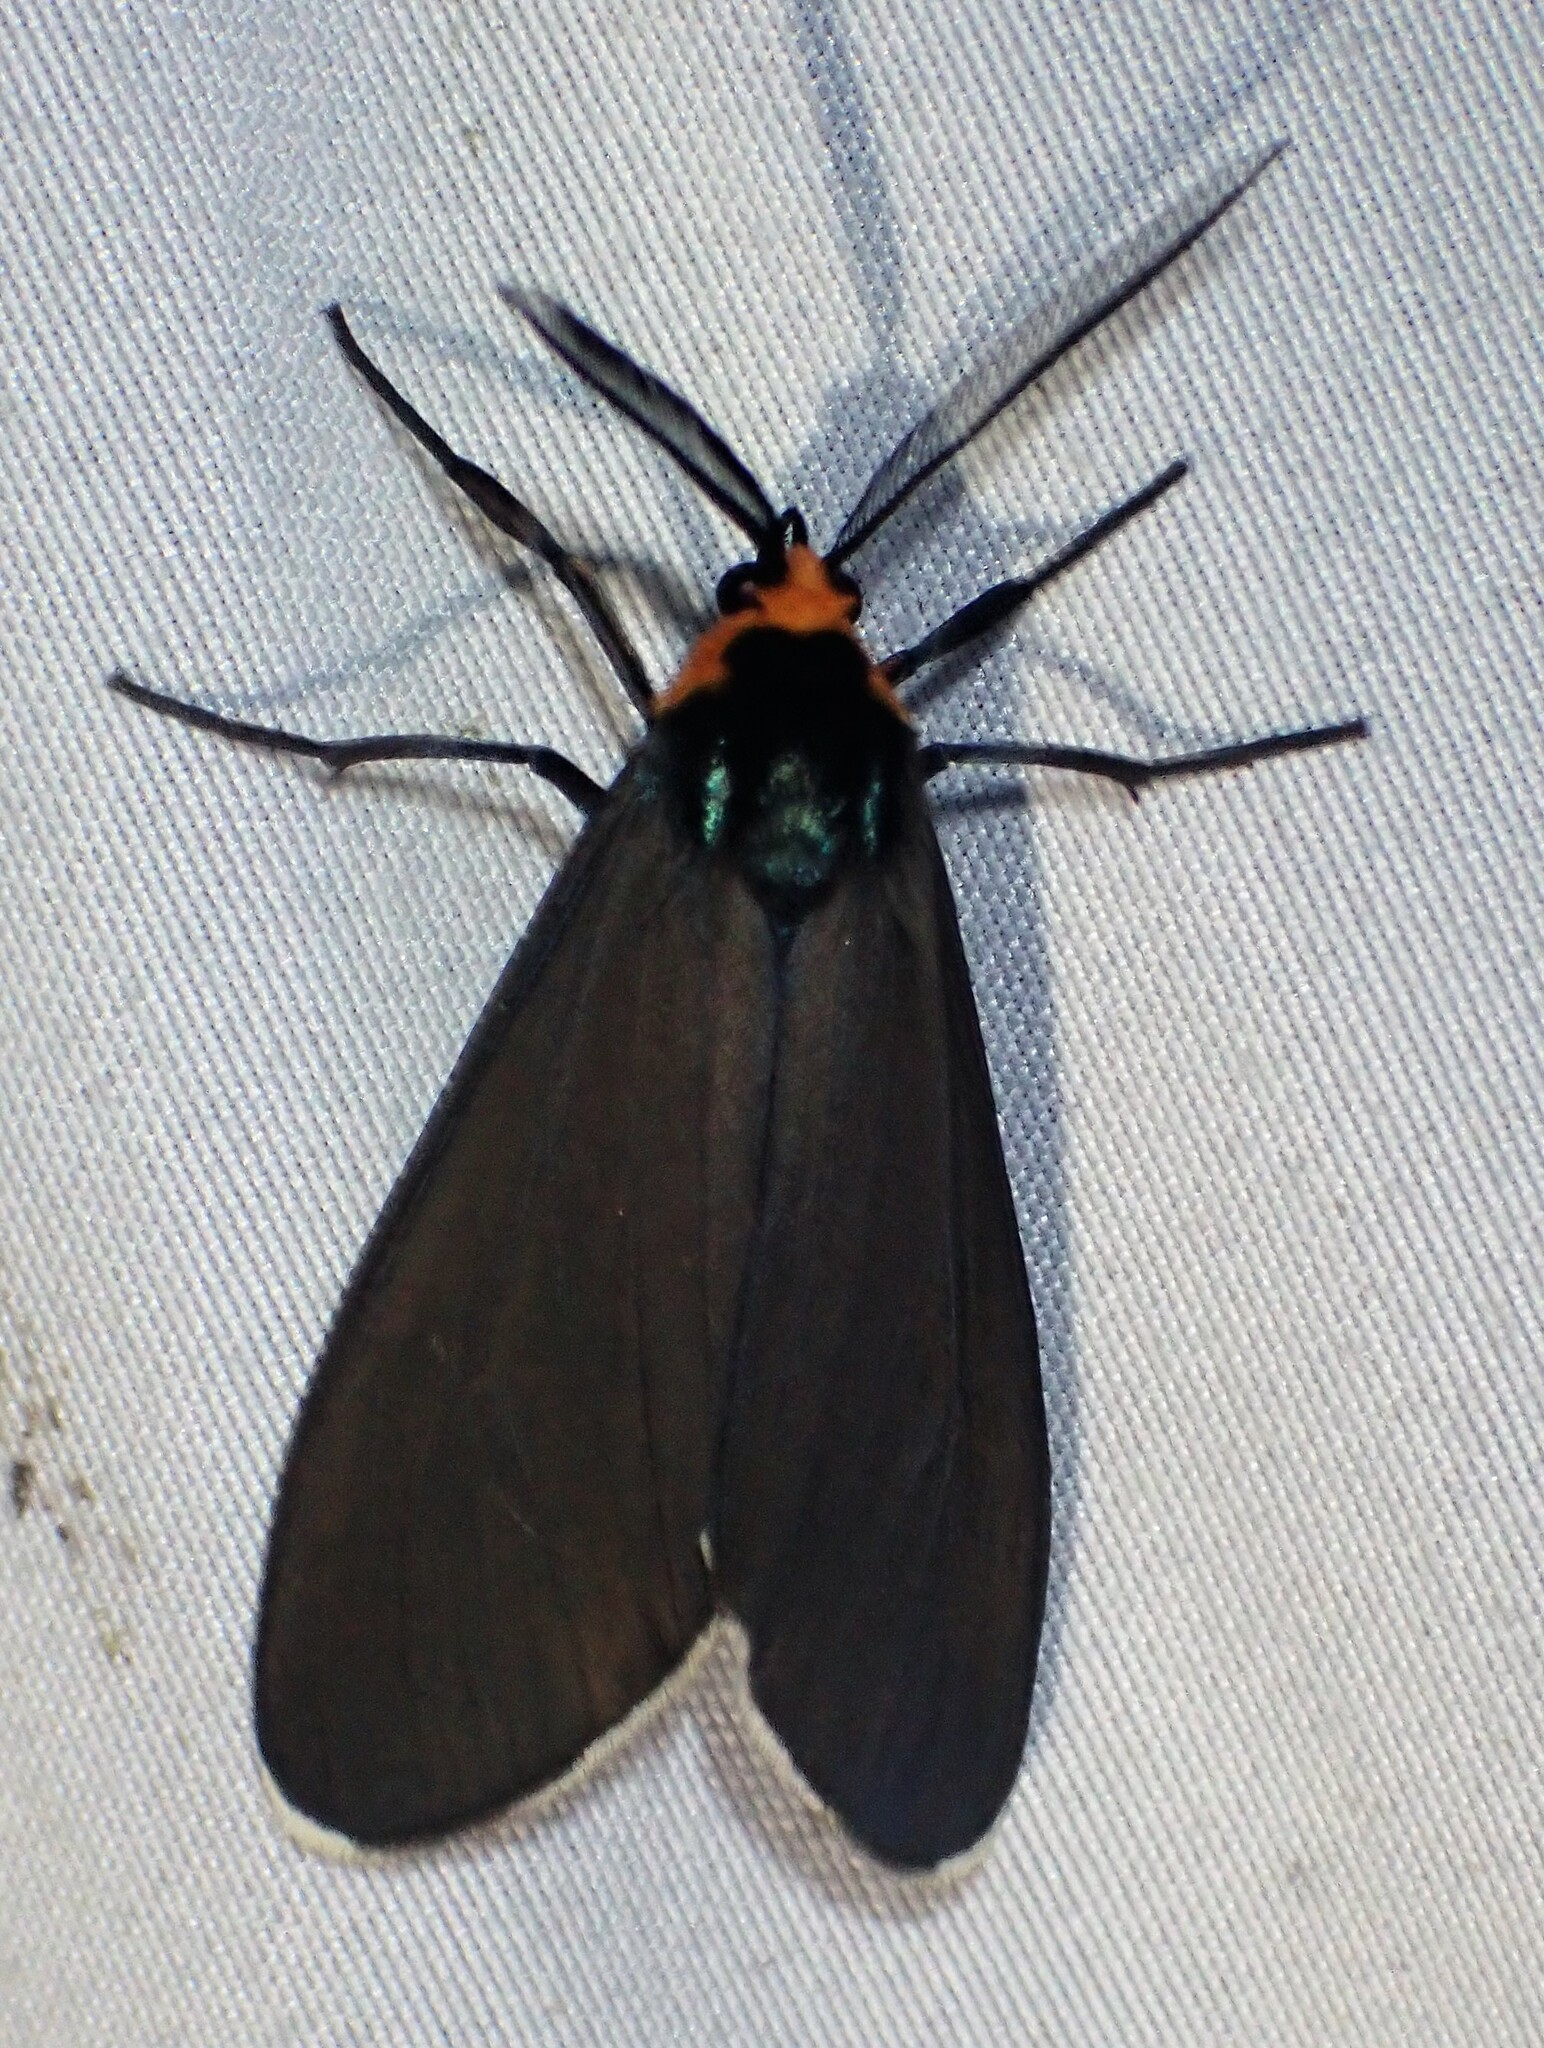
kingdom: Animalia
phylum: Arthropoda
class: Insecta
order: Lepidoptera
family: Erebidae
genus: Ctenucha
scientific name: Ctenucha virginica
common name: Virginia ctenucha moth
